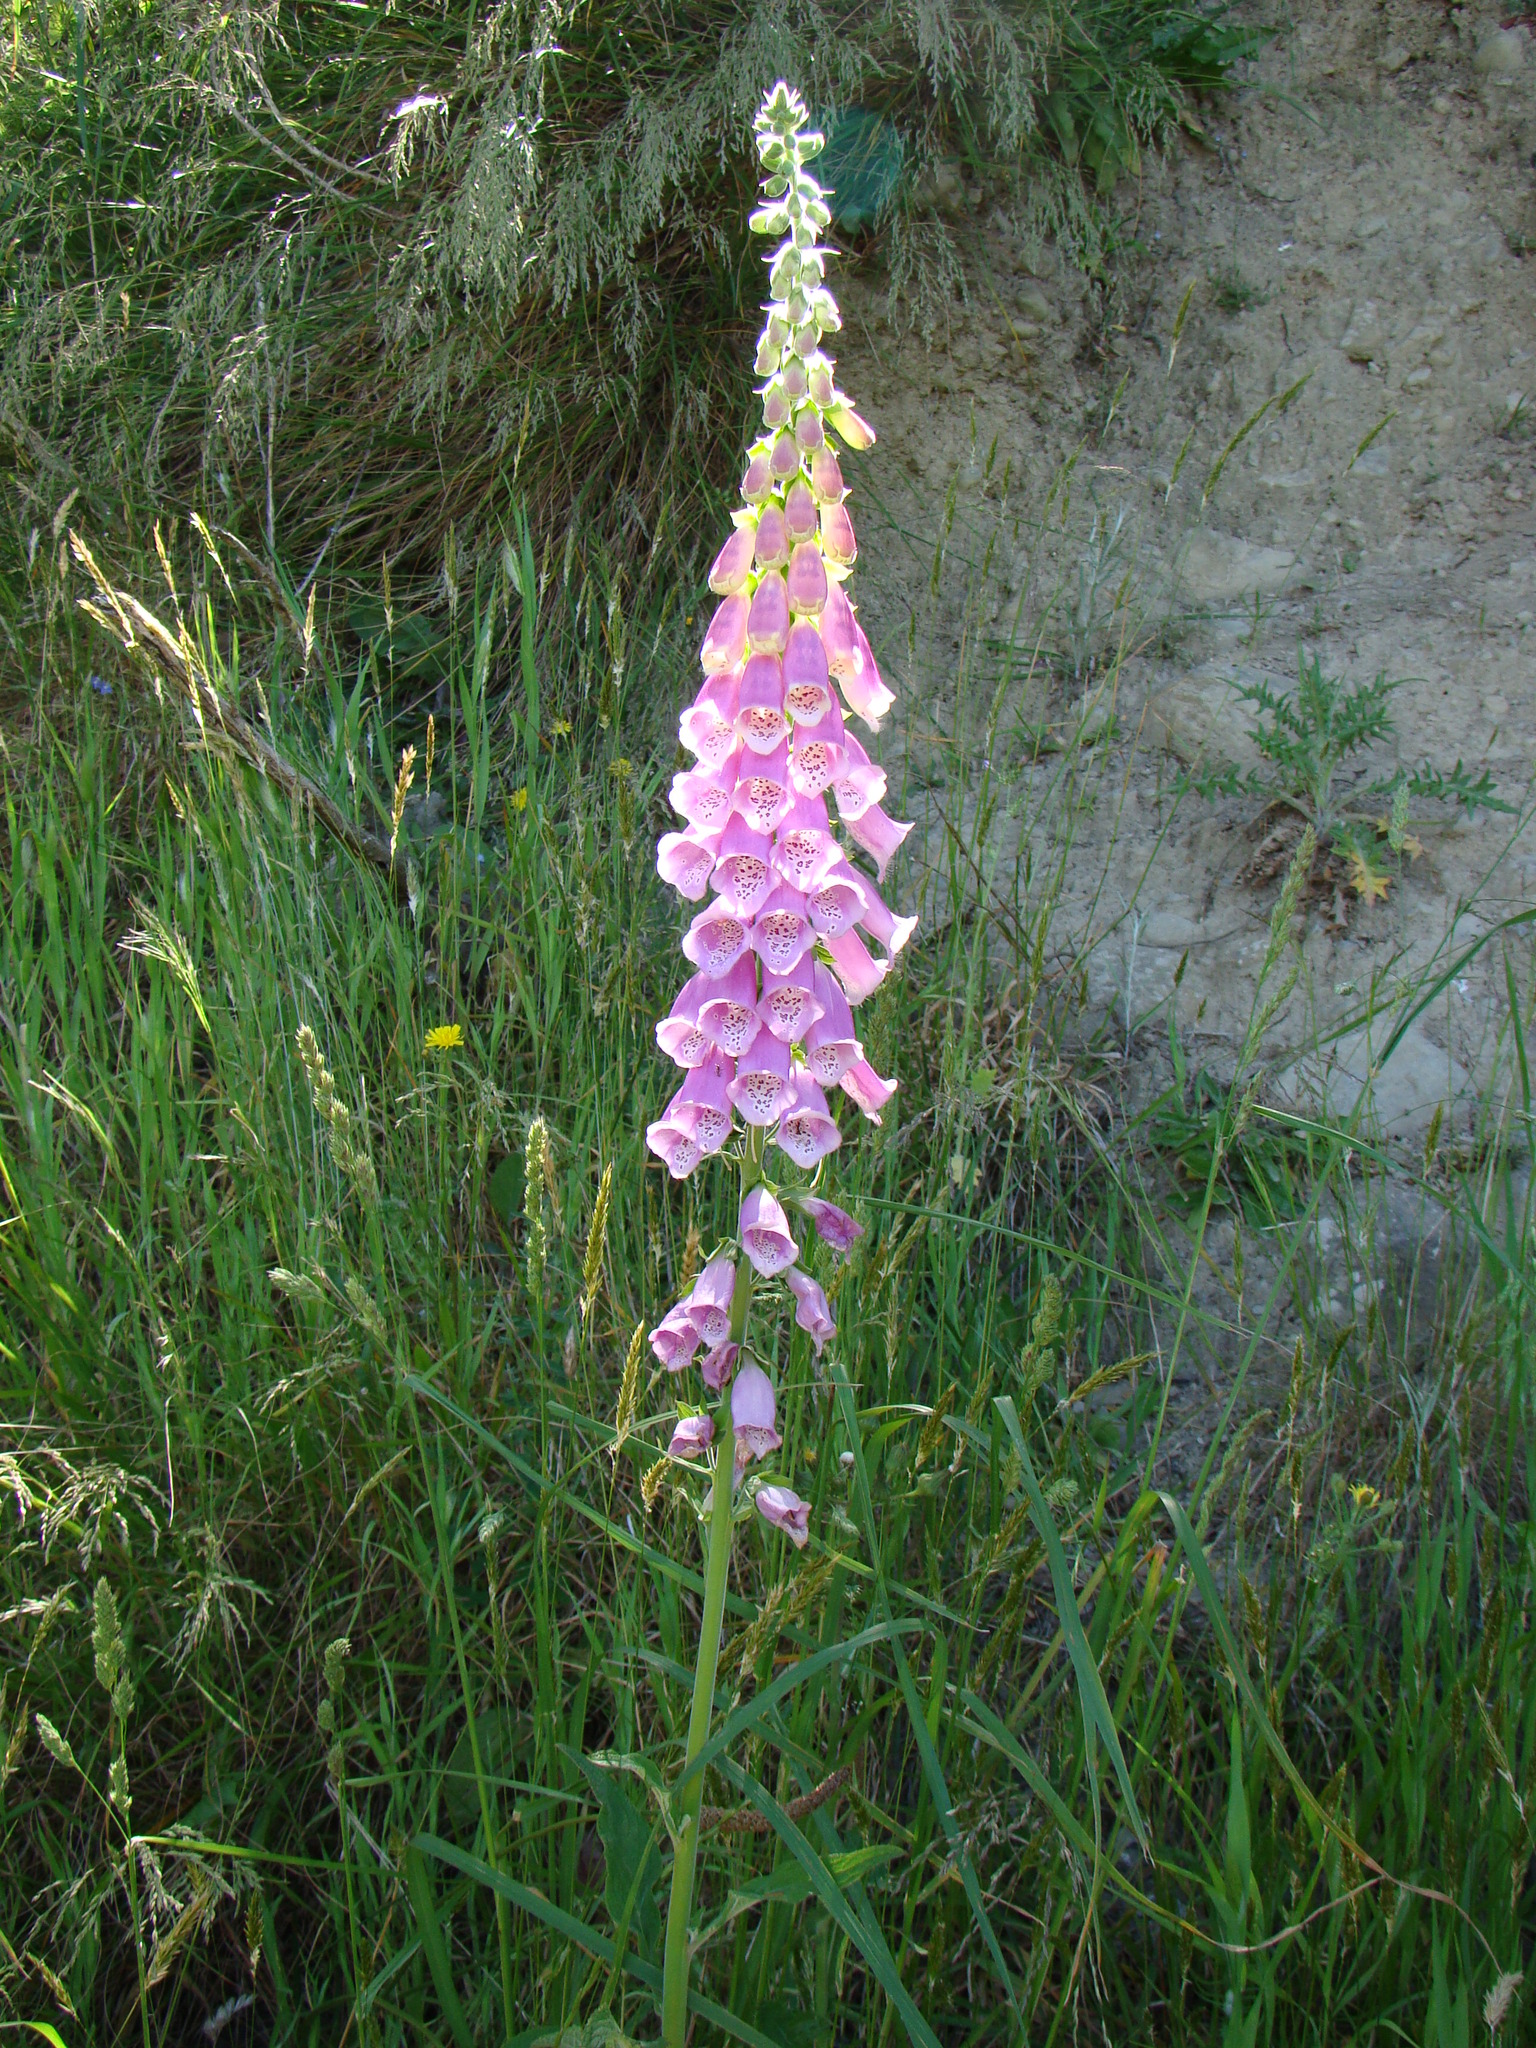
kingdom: Plantae
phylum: Tracheophyta
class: Magnoliopsida
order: Lamiales
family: Plantaginaceae
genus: Digitalis
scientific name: Digitalis purpurea
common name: Foxglove
